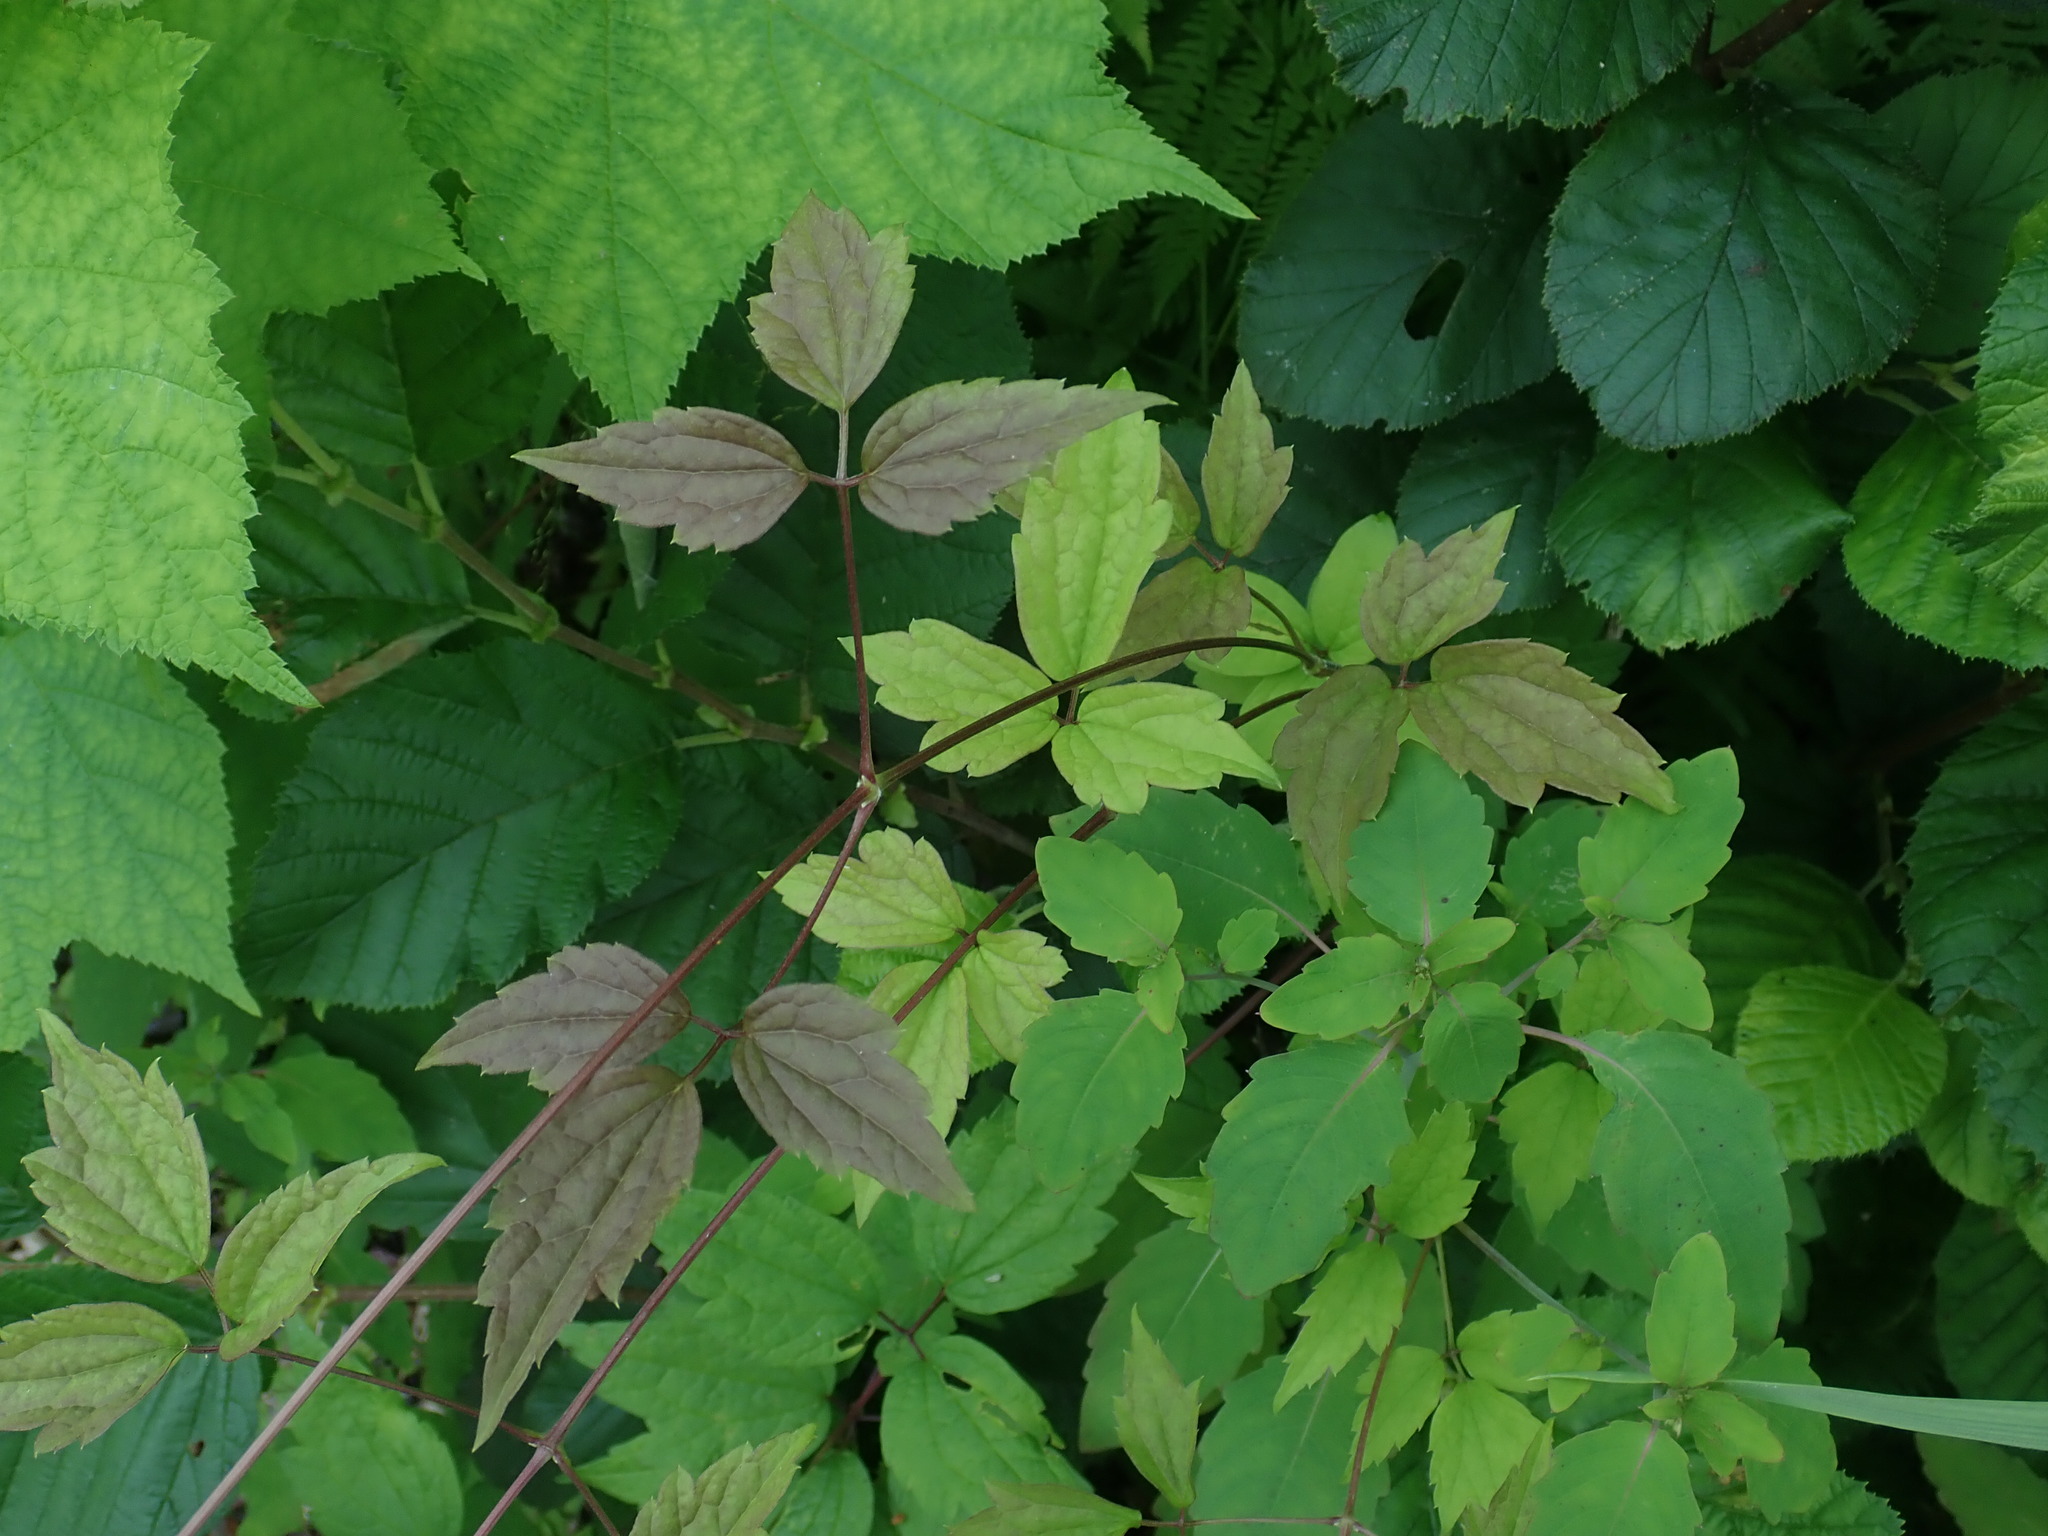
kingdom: Plantae
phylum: Tracheophyta
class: Magnoliopsida
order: Ranunculales
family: Ranunculaceae
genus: Clematis
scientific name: Clematis virginiana
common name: Virgin's-bower
